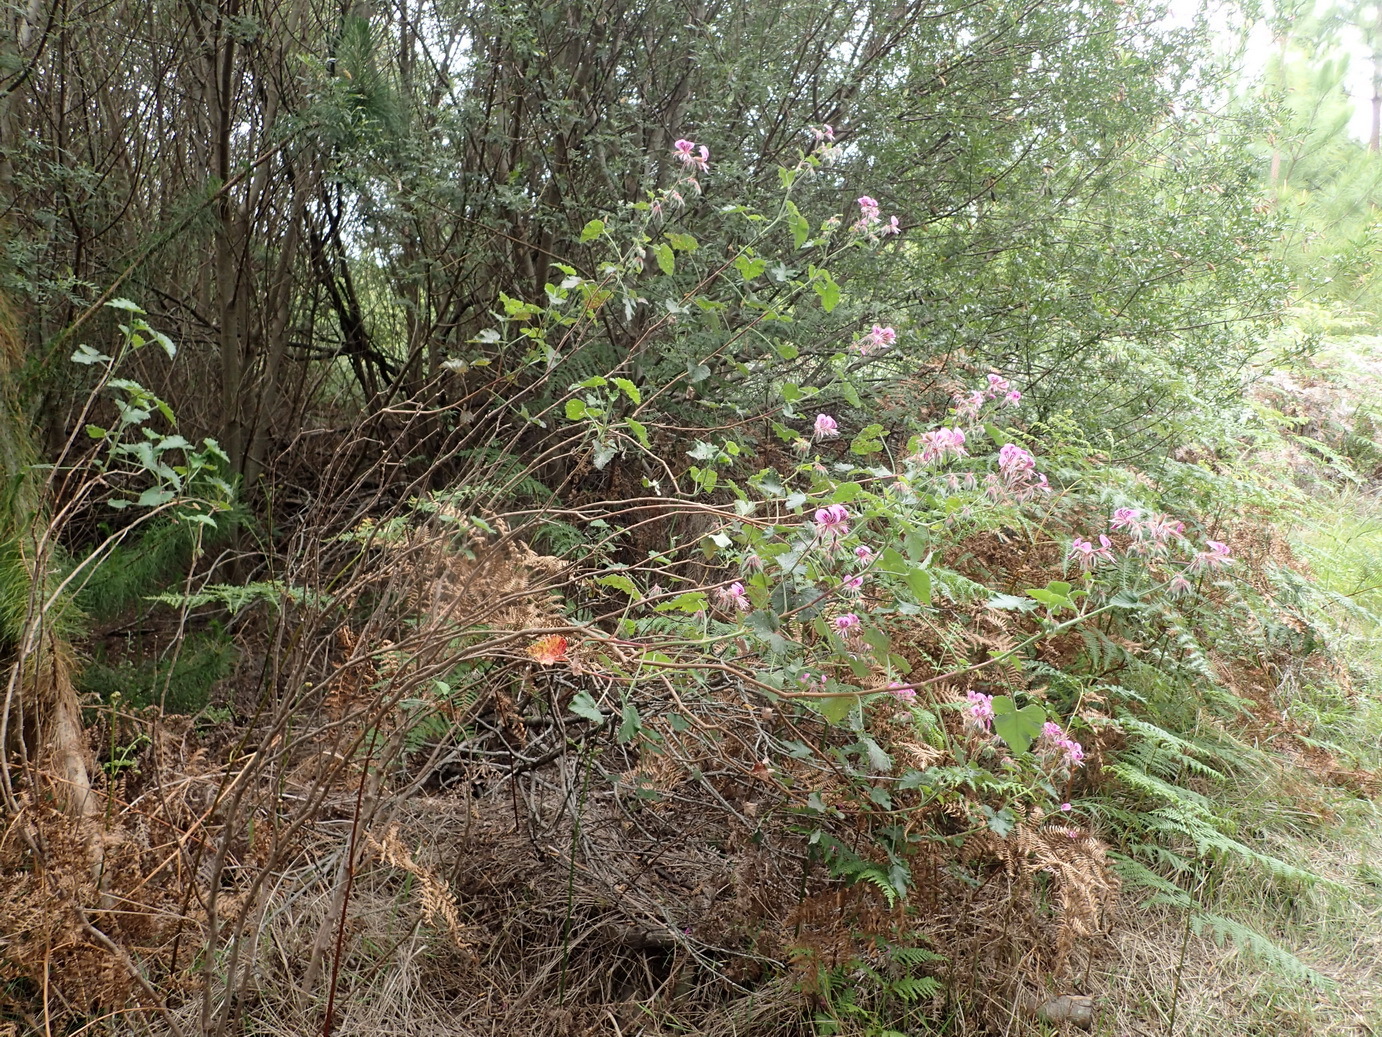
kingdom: Plantae
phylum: Tracheophyta
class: Magnoliopsida
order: Geraniales
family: Geraniaceae
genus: Pelargonium
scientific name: Pelargonium cordifolium
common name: Heart-leaf pelargonium
